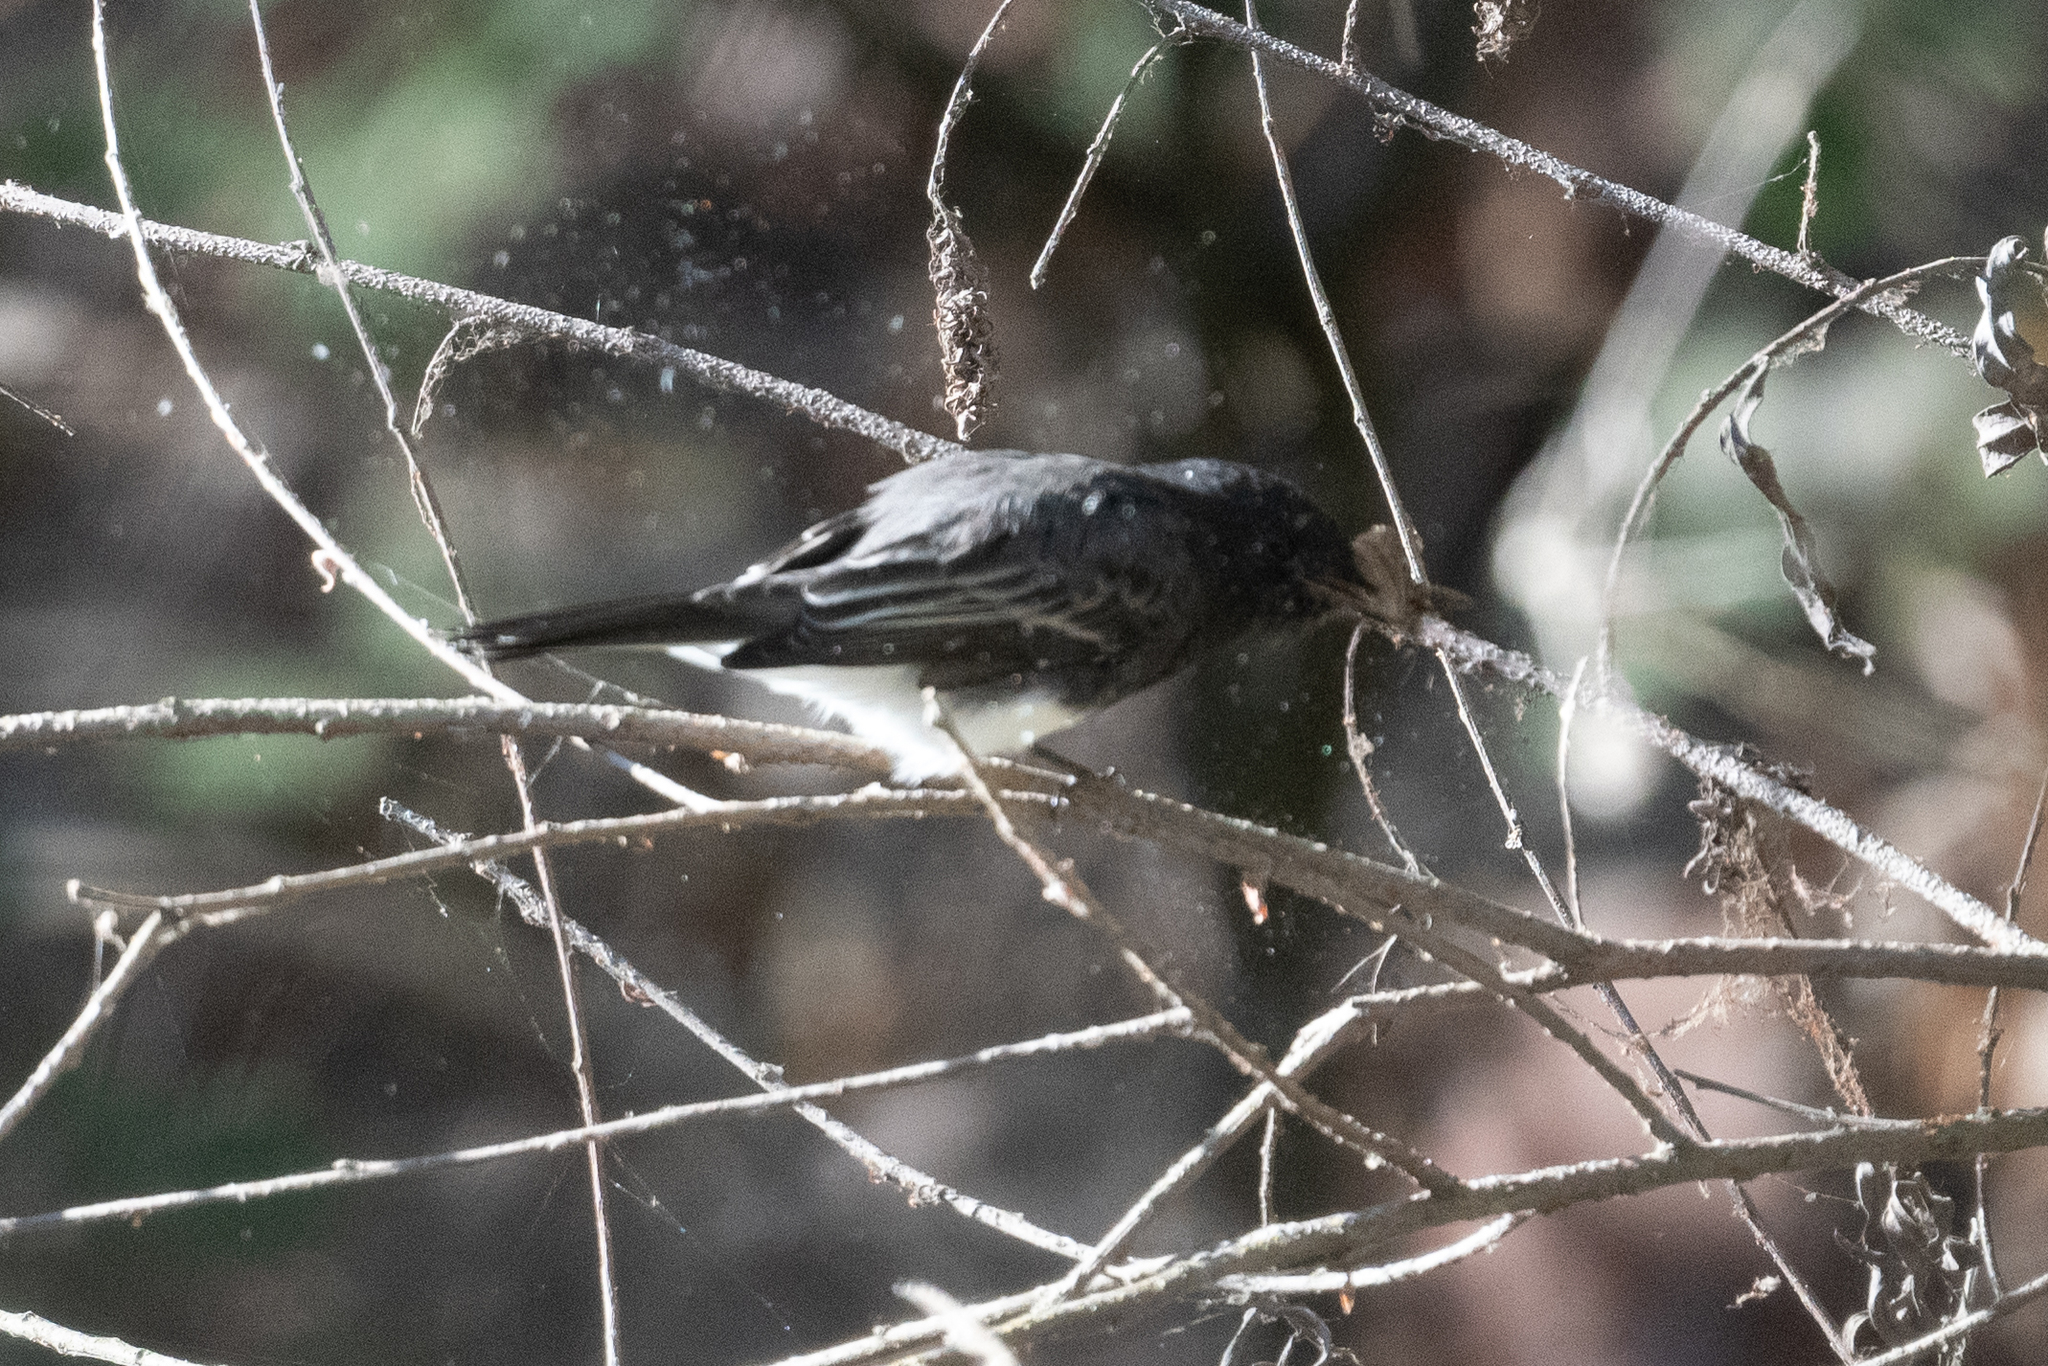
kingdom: Animalia
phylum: Chordata
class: Aves
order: Passeriformes
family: Tyrannidae
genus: Sayornis
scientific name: Sayornis nigricans
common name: Black phoebe
